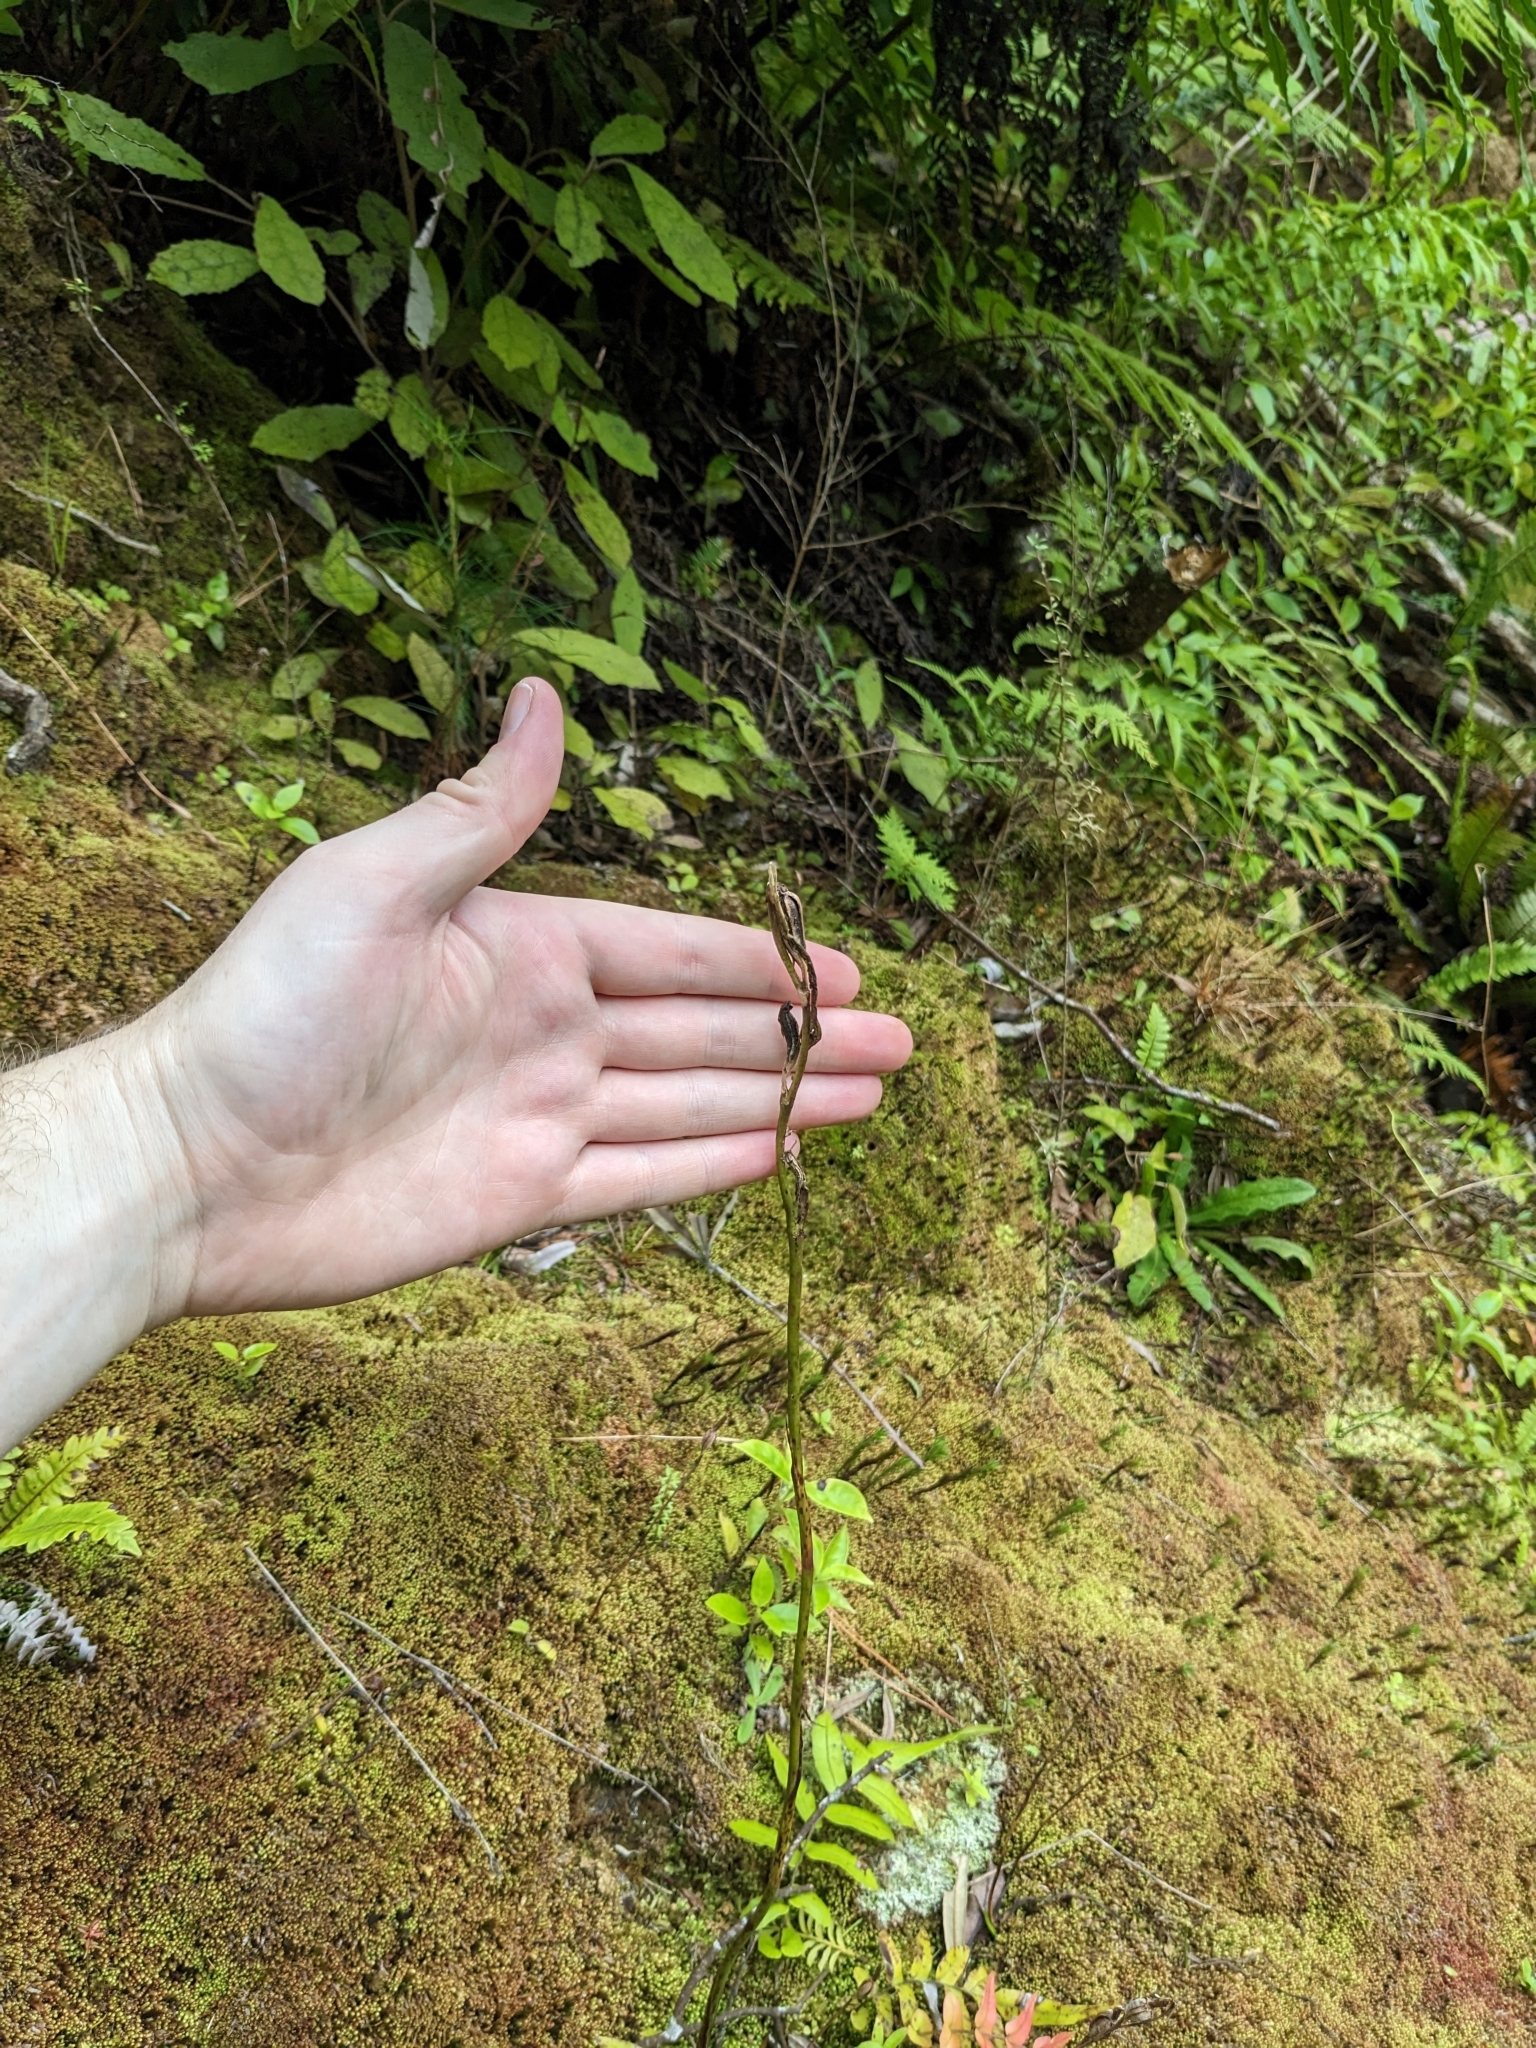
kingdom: Plantae
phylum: Tracheophyta
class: Liliopsida
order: Asparagales
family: Orchidaceae
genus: Orthoceras
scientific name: Orthoceras novae-zeelandiae
